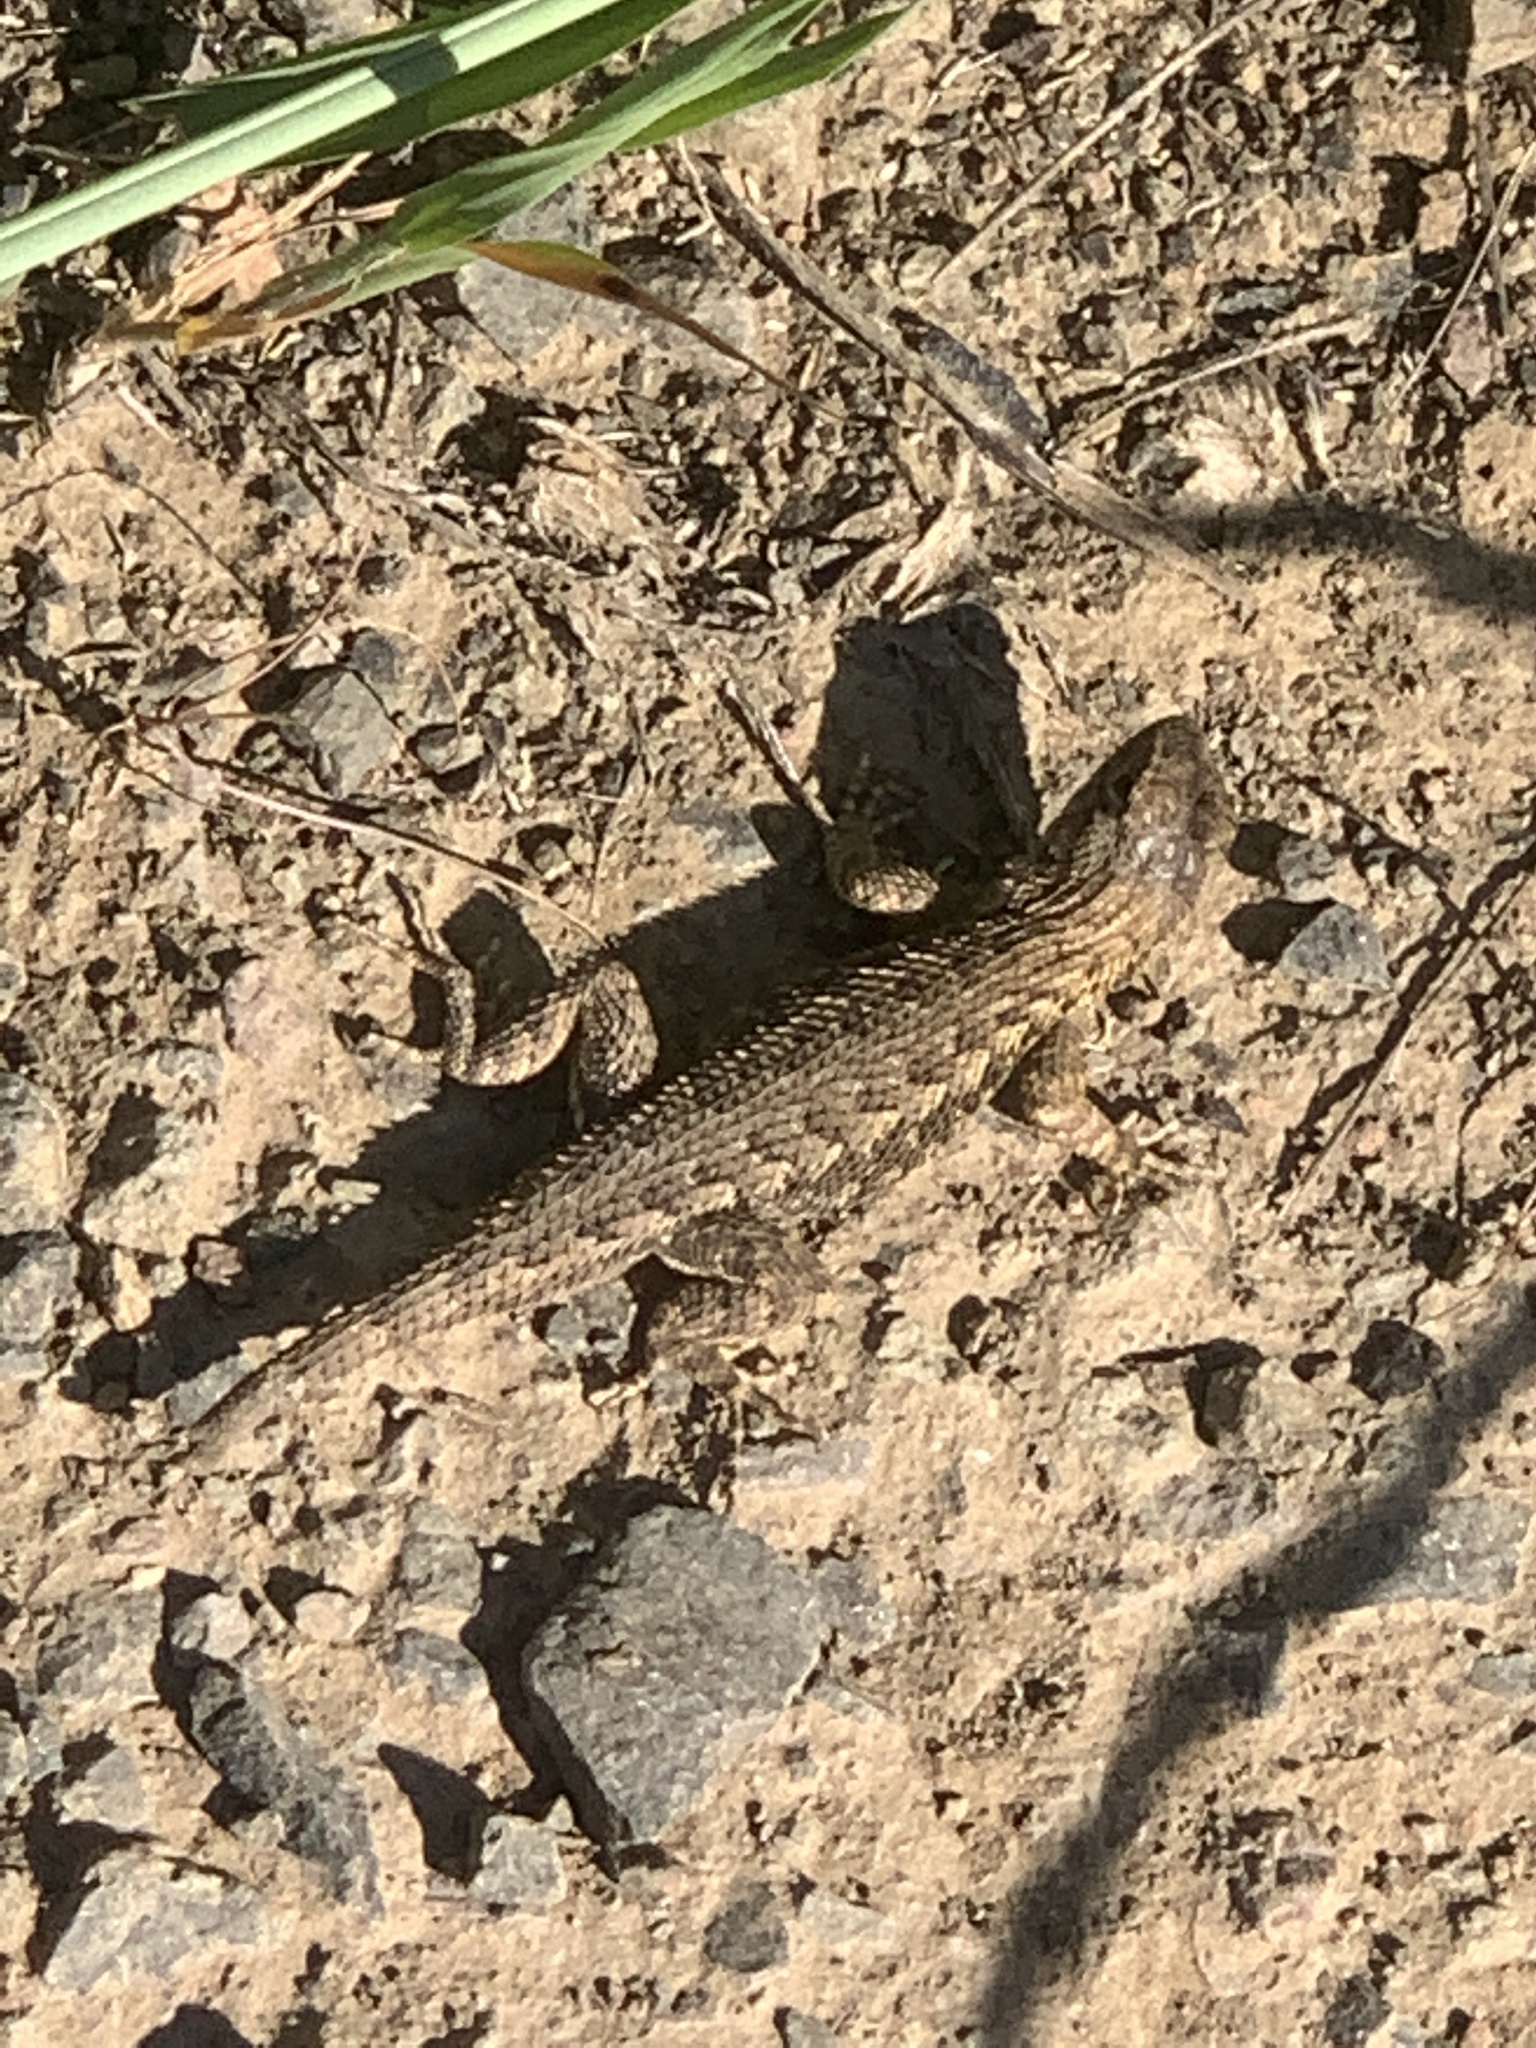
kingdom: Animalia
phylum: Chordata
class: Squamata
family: Phrynosomatidae
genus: Sceloporus
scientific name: Sceloporus occidentalis
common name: Western fence lizard
